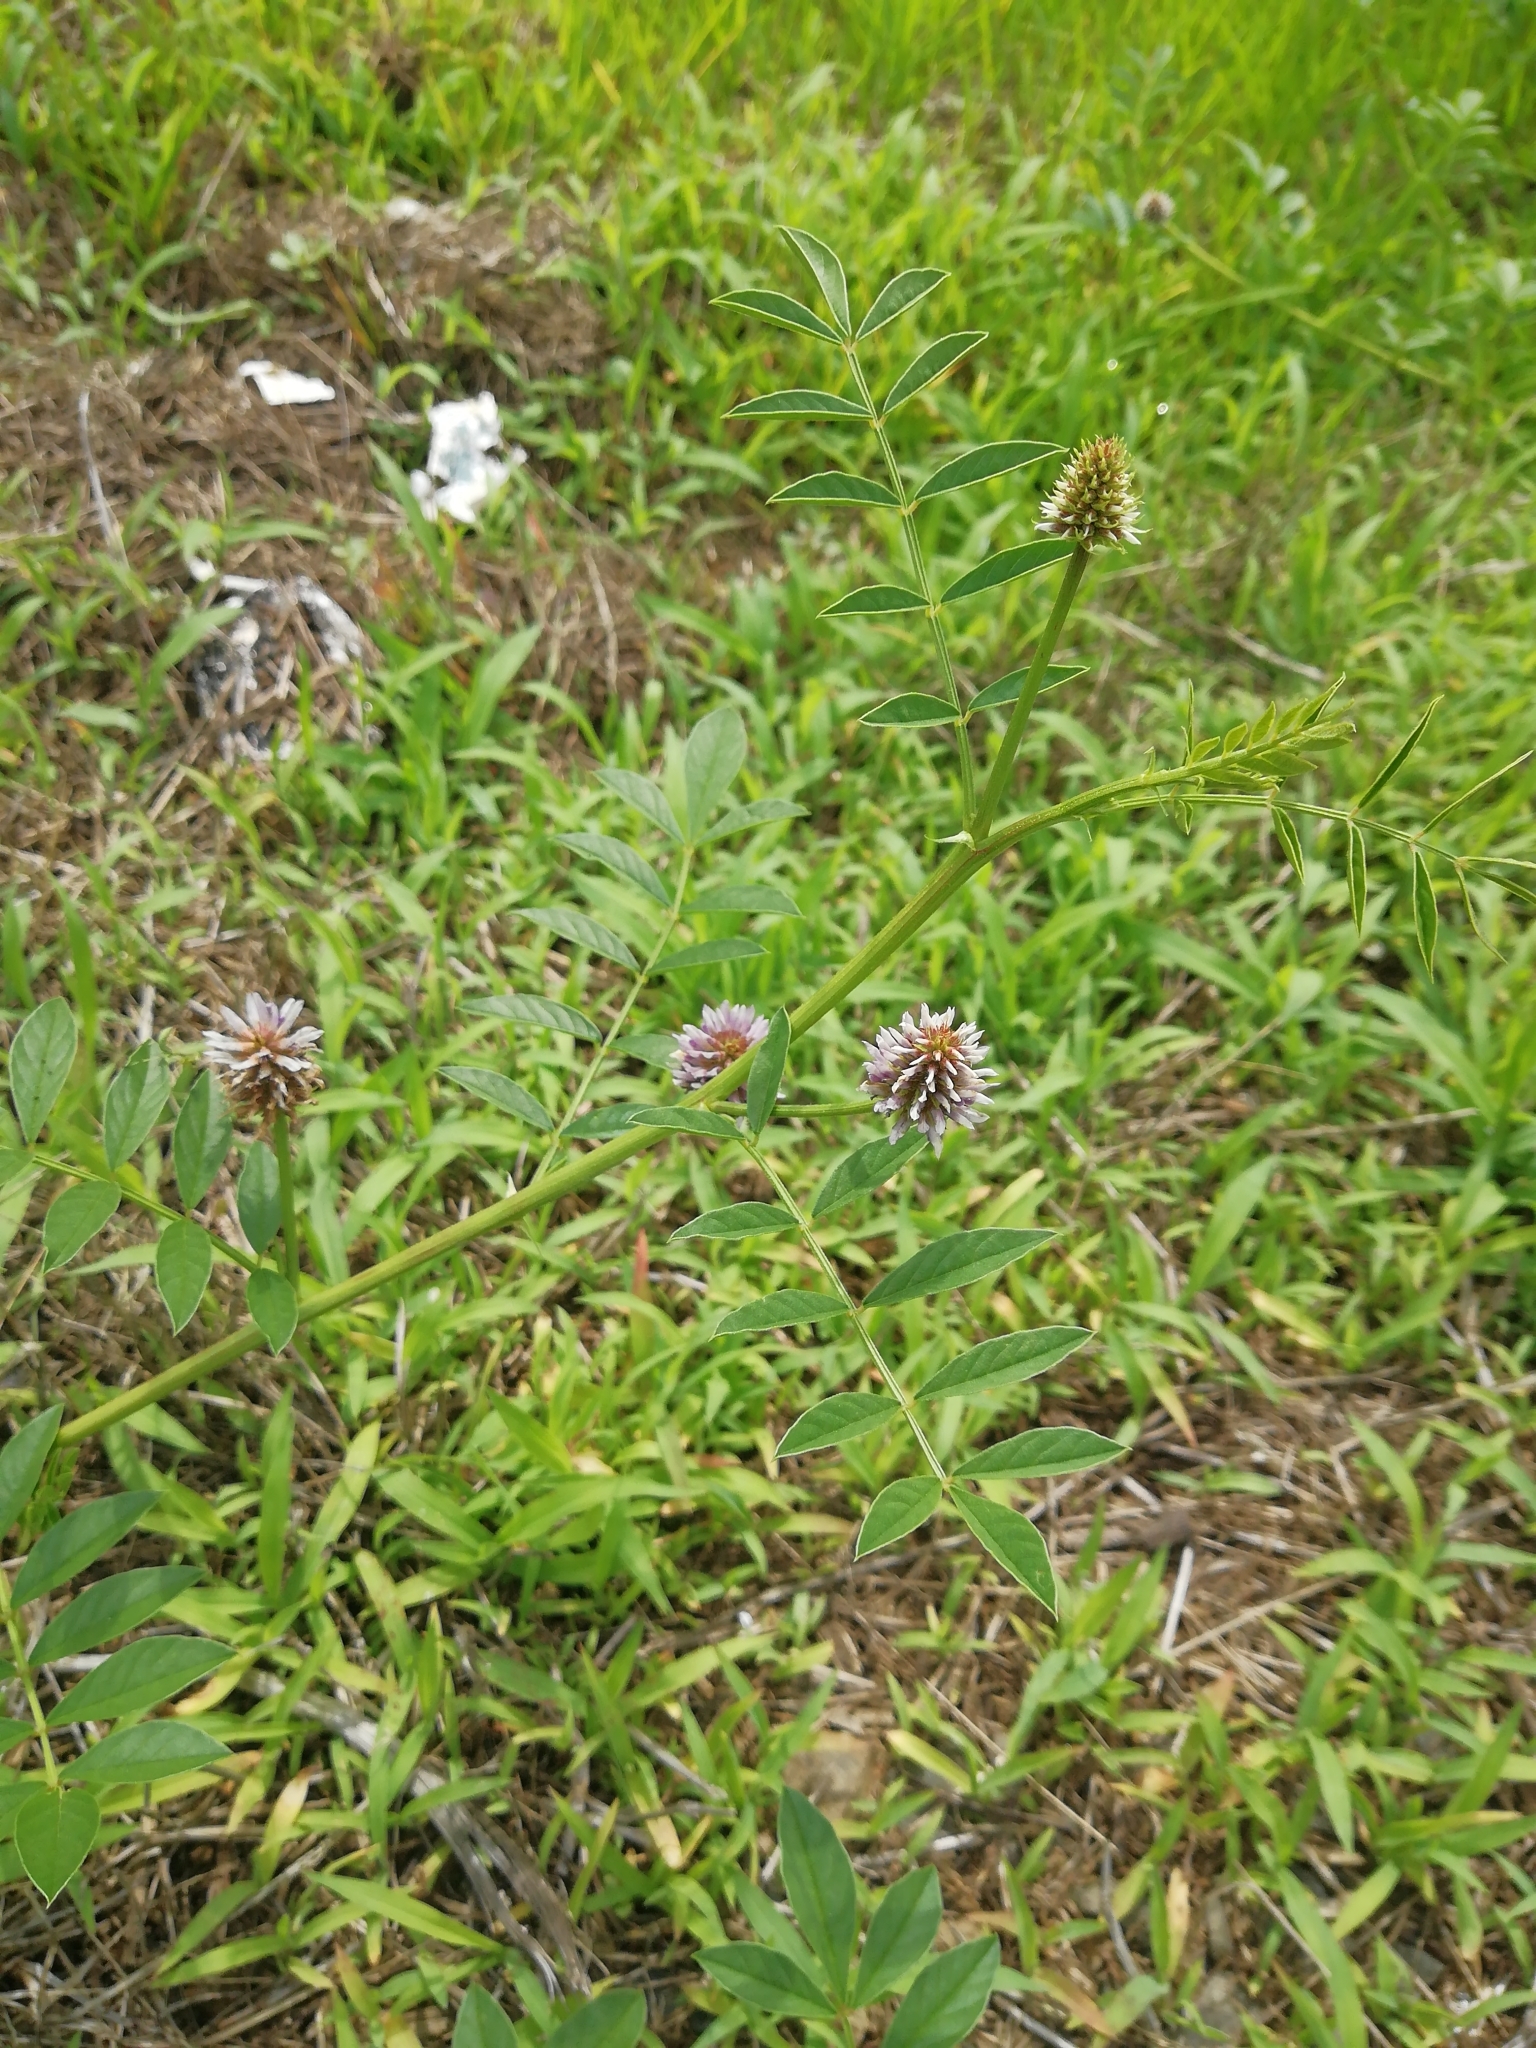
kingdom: Plantae
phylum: Tracheophyta
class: Magnoliopsida
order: Fabales
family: Fabaceae
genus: Glycyrrhiza
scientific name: Glycyrrhiza echinata
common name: German liquorice
